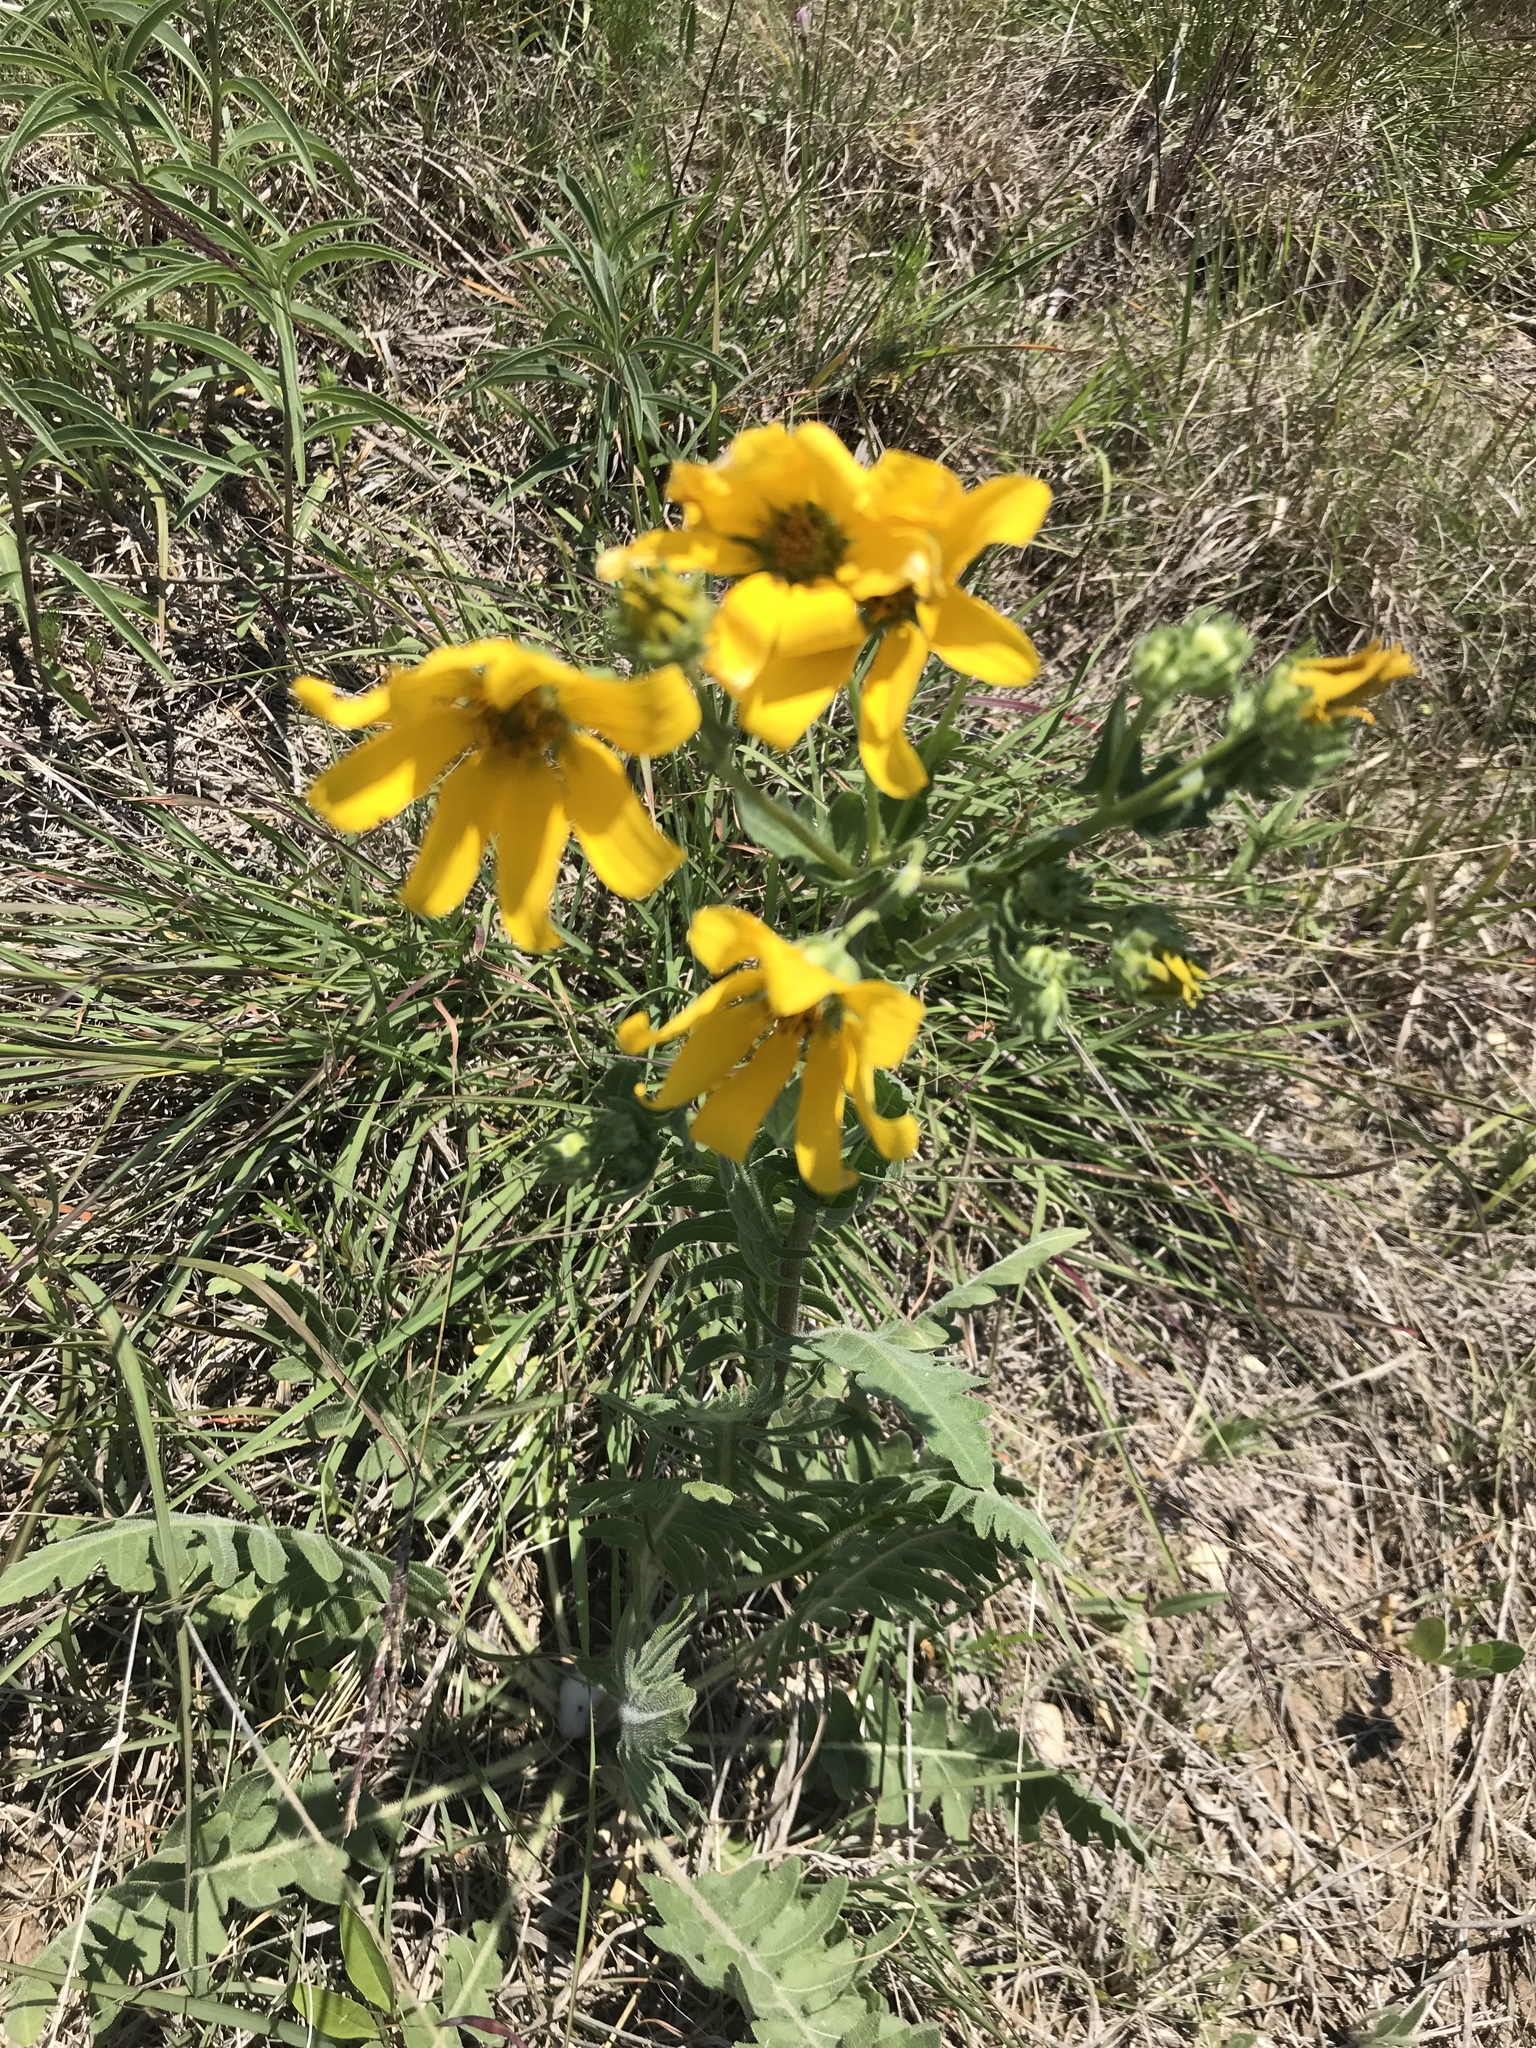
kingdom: Plantae
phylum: Tracheophyta
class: Magnoliopsida
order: Asterales
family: Asteraceae
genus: Engelmannia
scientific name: Engelmannia peristenia
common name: Engelmann's daisy
